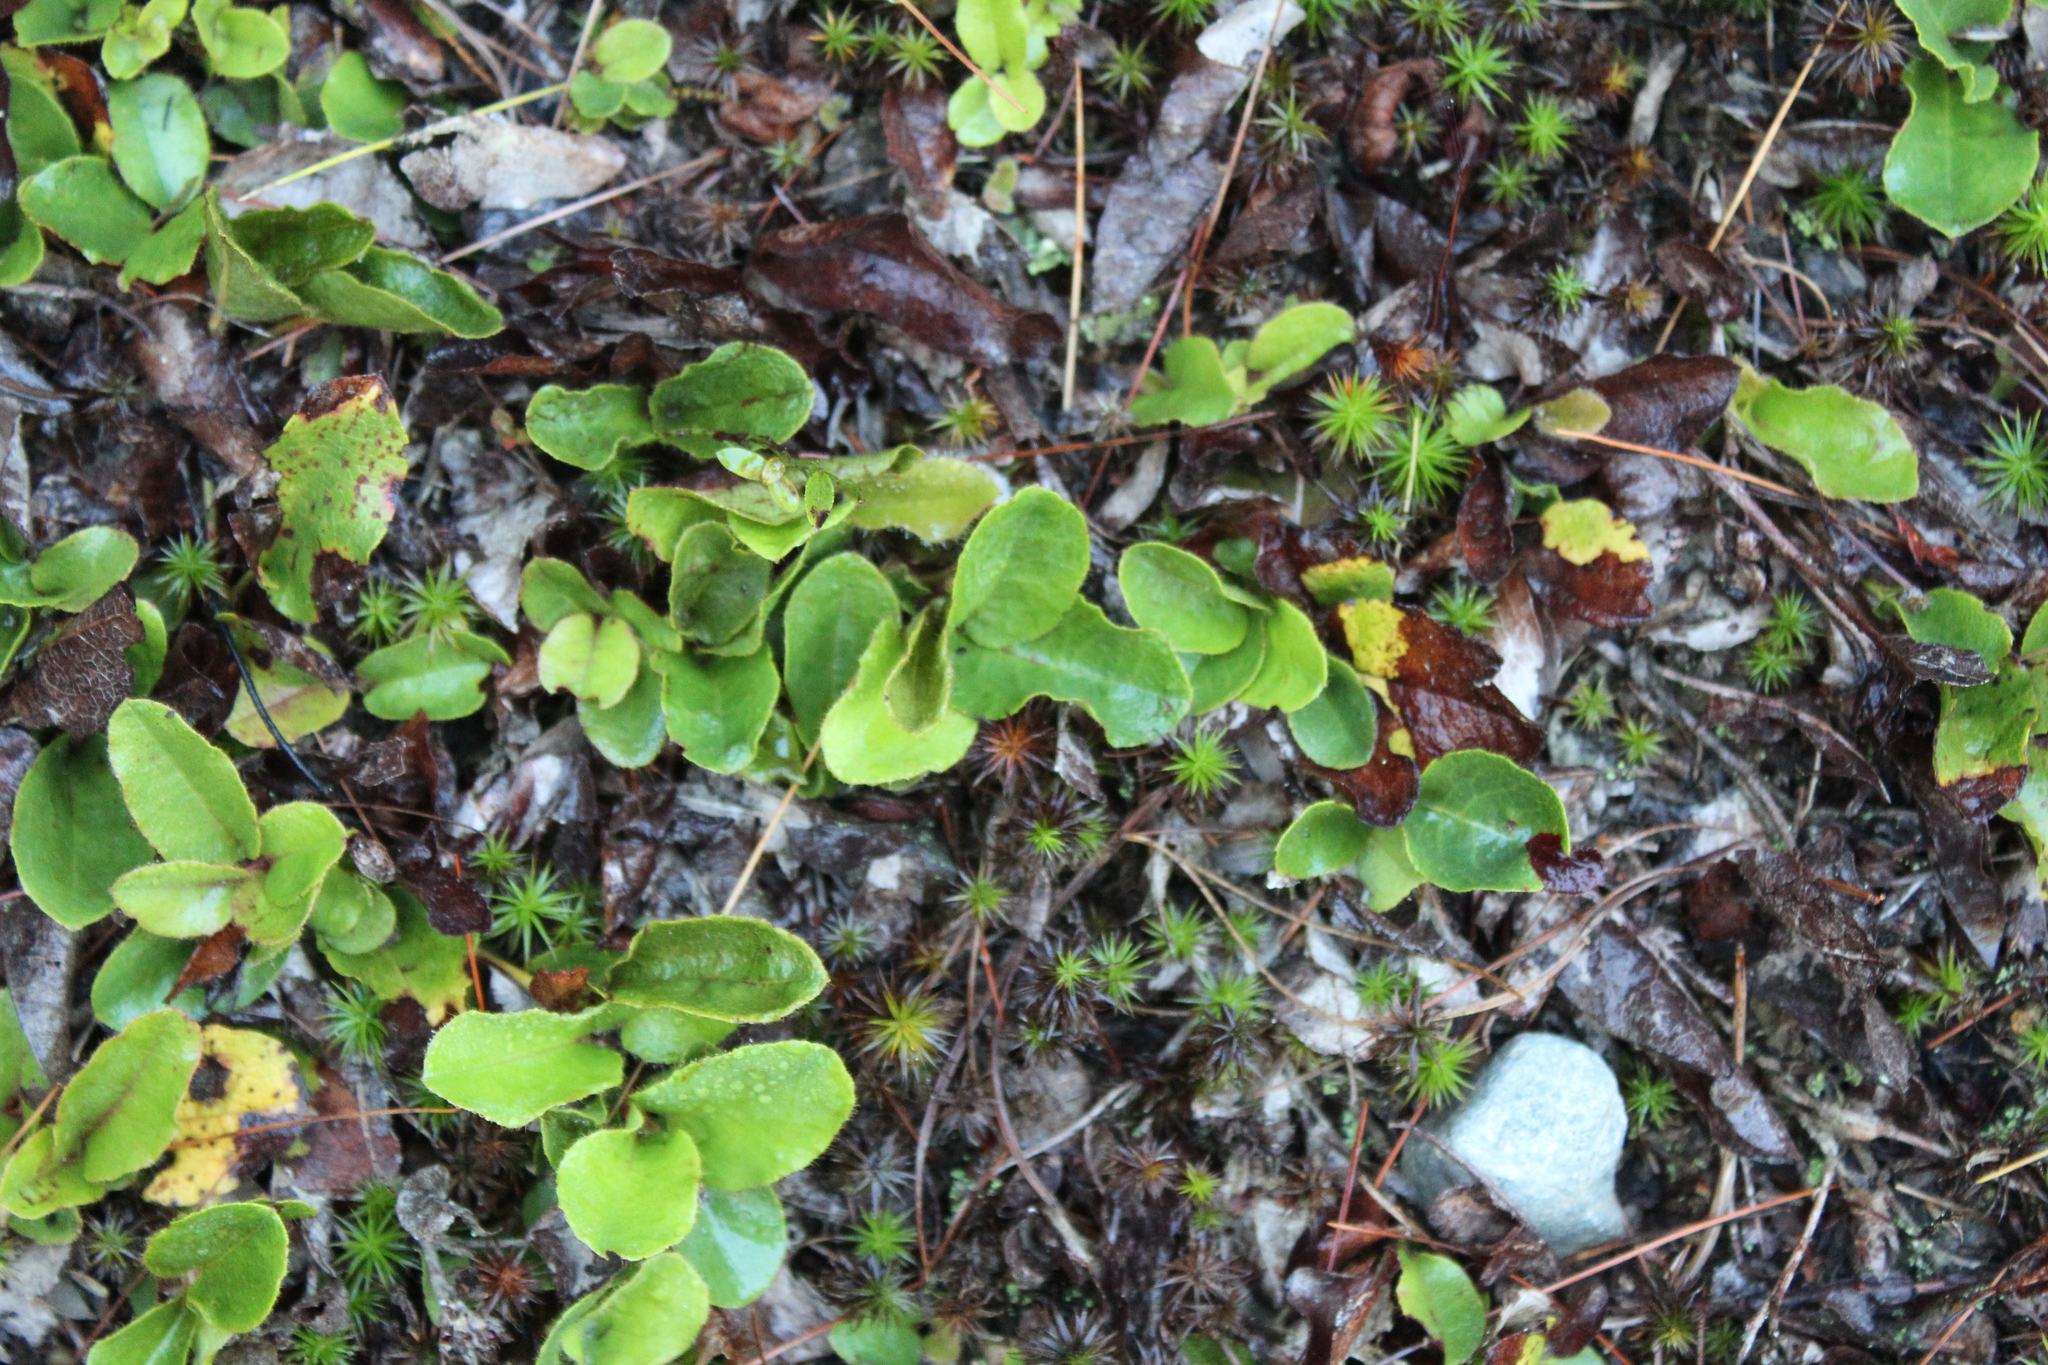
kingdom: Plantae
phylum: Tracheophyta
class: Magnoliopsida
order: Ericales
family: Ericaceae
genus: Epigaea
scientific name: Epigaea repens
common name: Gravelroot
